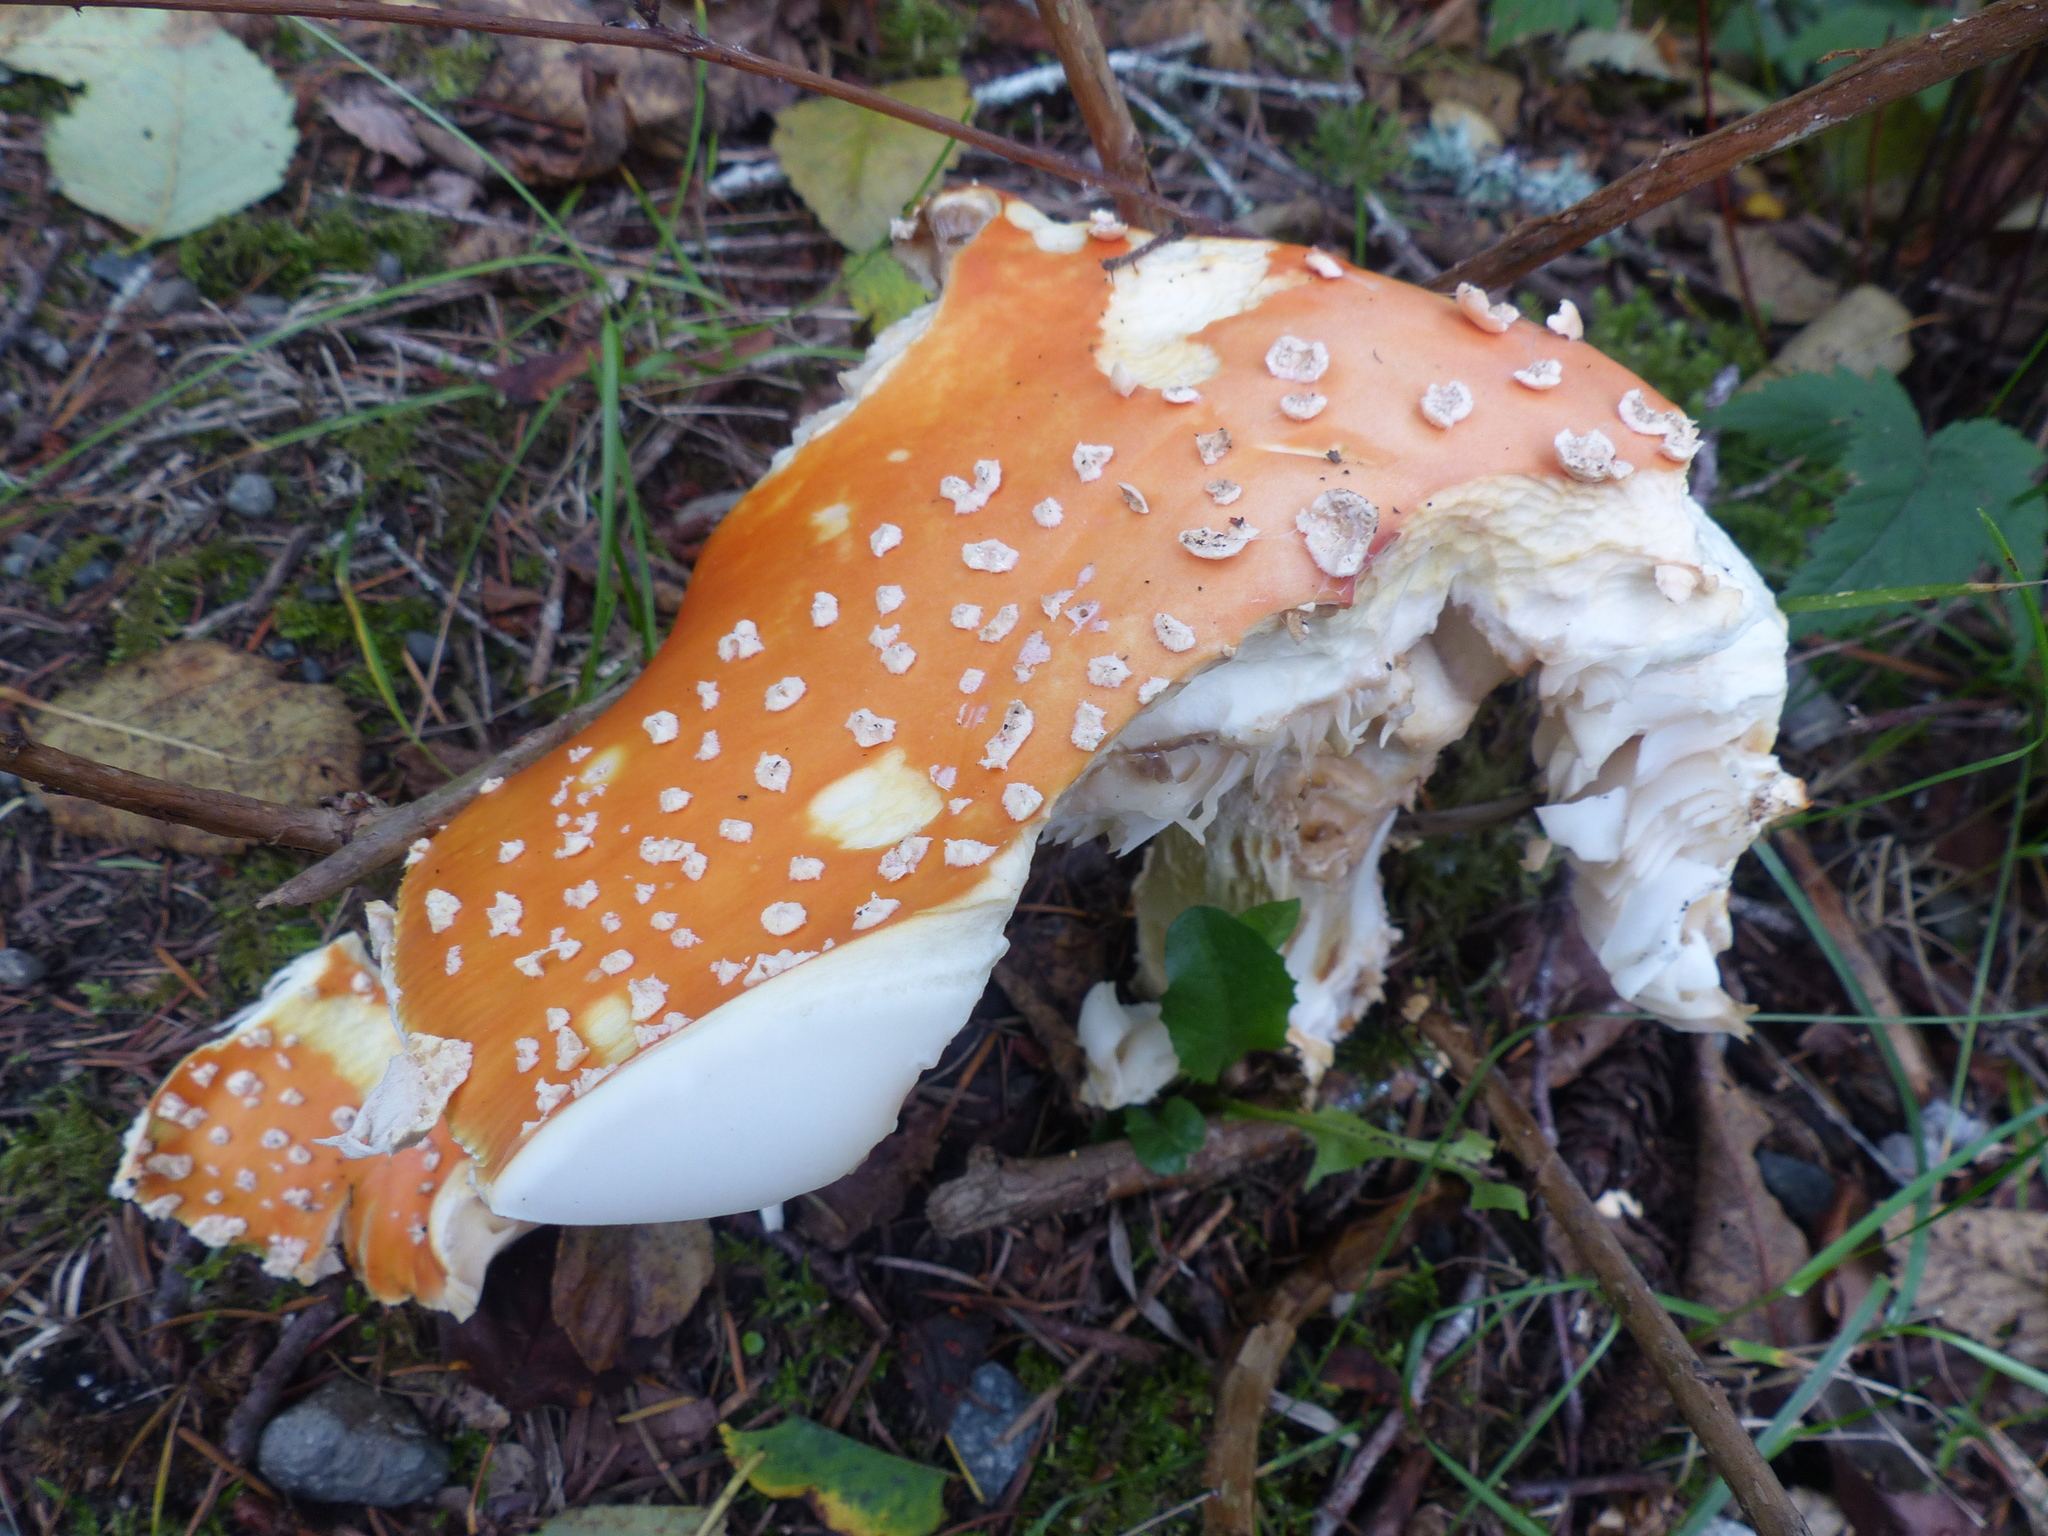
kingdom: Fungi
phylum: Basidiomycota
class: Agaricomycetes
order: Agaricales
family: Amanitaceae
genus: Amanita
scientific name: Amanita muscaria
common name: Fly agaric
